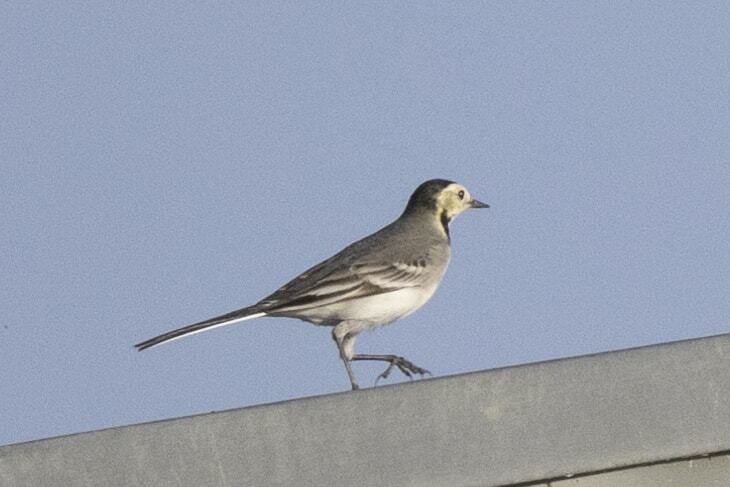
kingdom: Animalia
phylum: Chordata
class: Aves
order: Passeriformes
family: Motacillidae
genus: Motacilla
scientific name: Motacilla alba
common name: White wagtail
